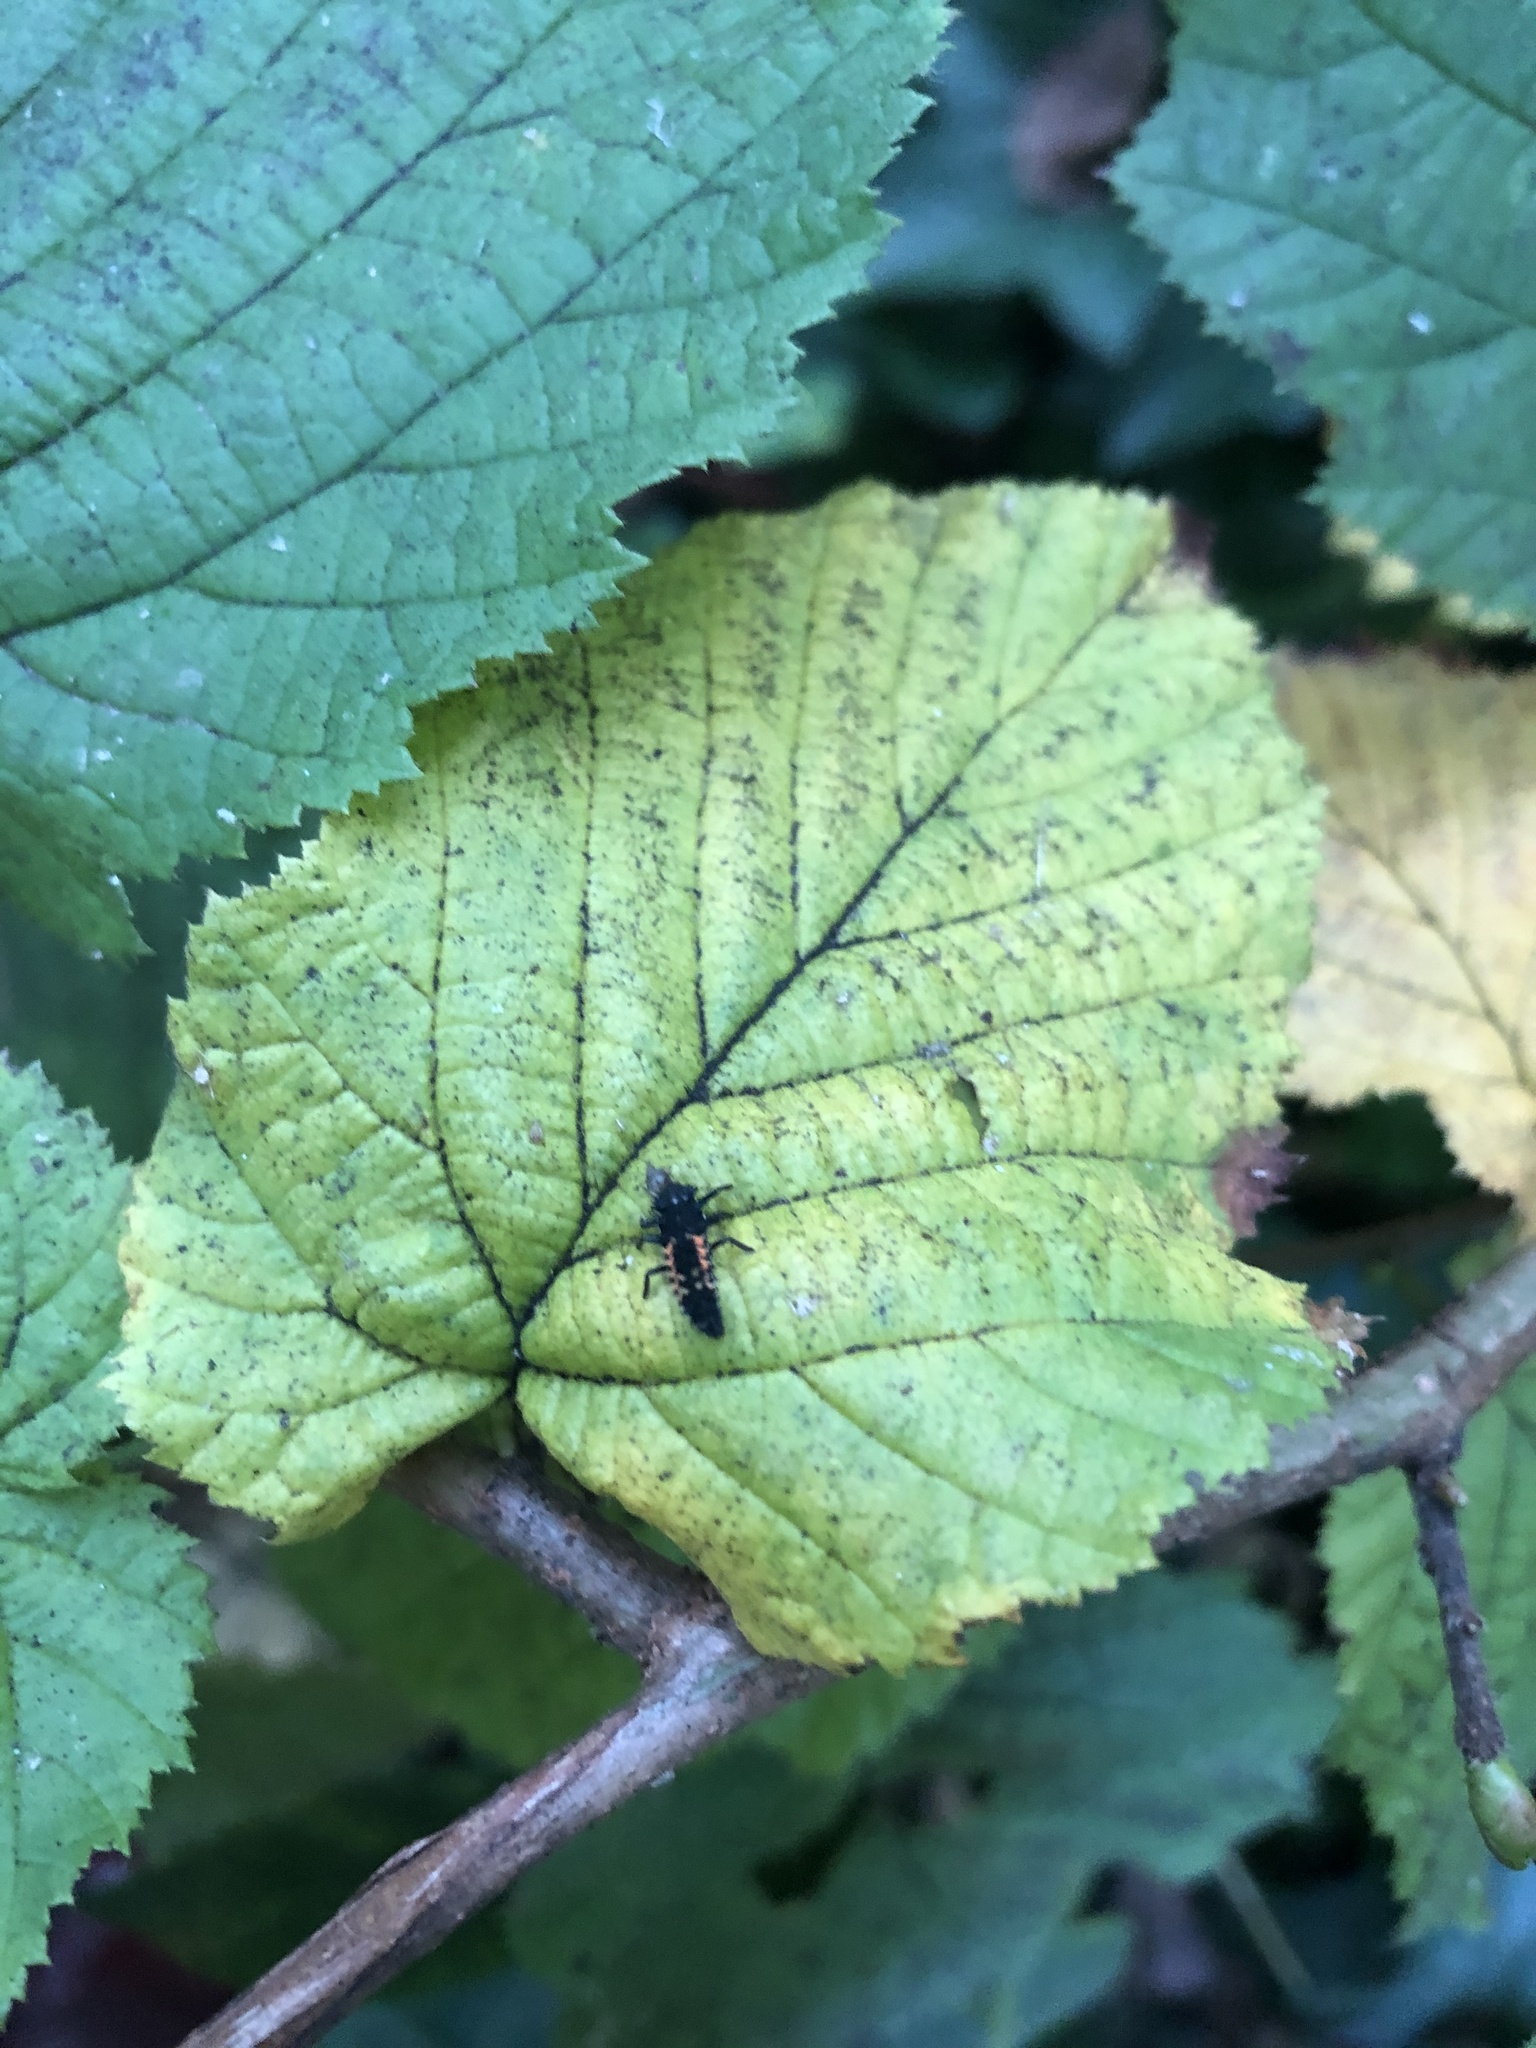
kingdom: Animalia
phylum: Arthropoda
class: Insecta
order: Coleoptera
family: Coccinellidae
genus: Harmonia
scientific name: Harmonia axyridis
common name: Harlequin ladybird
